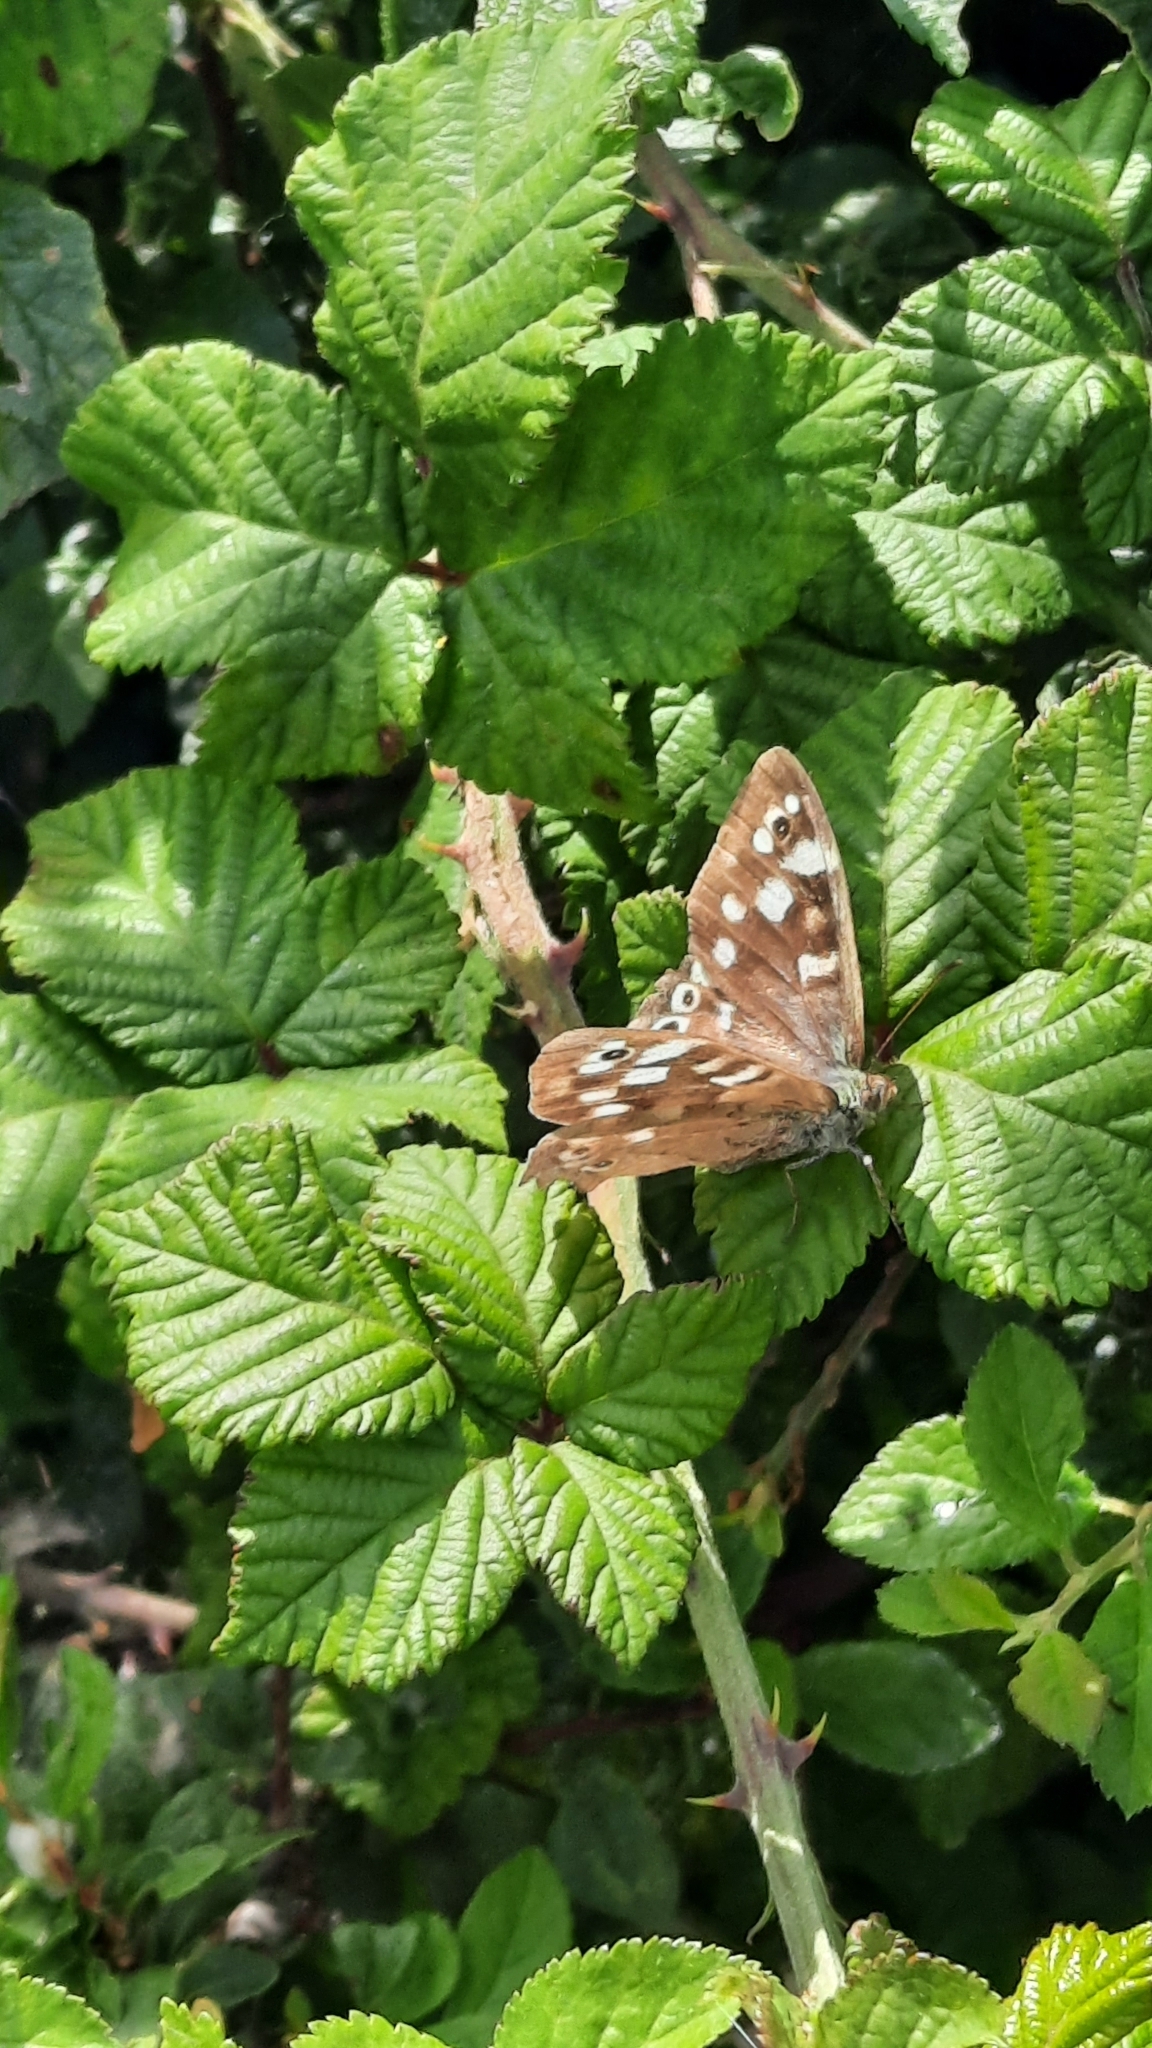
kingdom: Animalia
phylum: Arthropoda
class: Insecta
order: Lepidoptera
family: Nymphalidae
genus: Pararge
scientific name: Pararge aegeria
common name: Speckled wood
